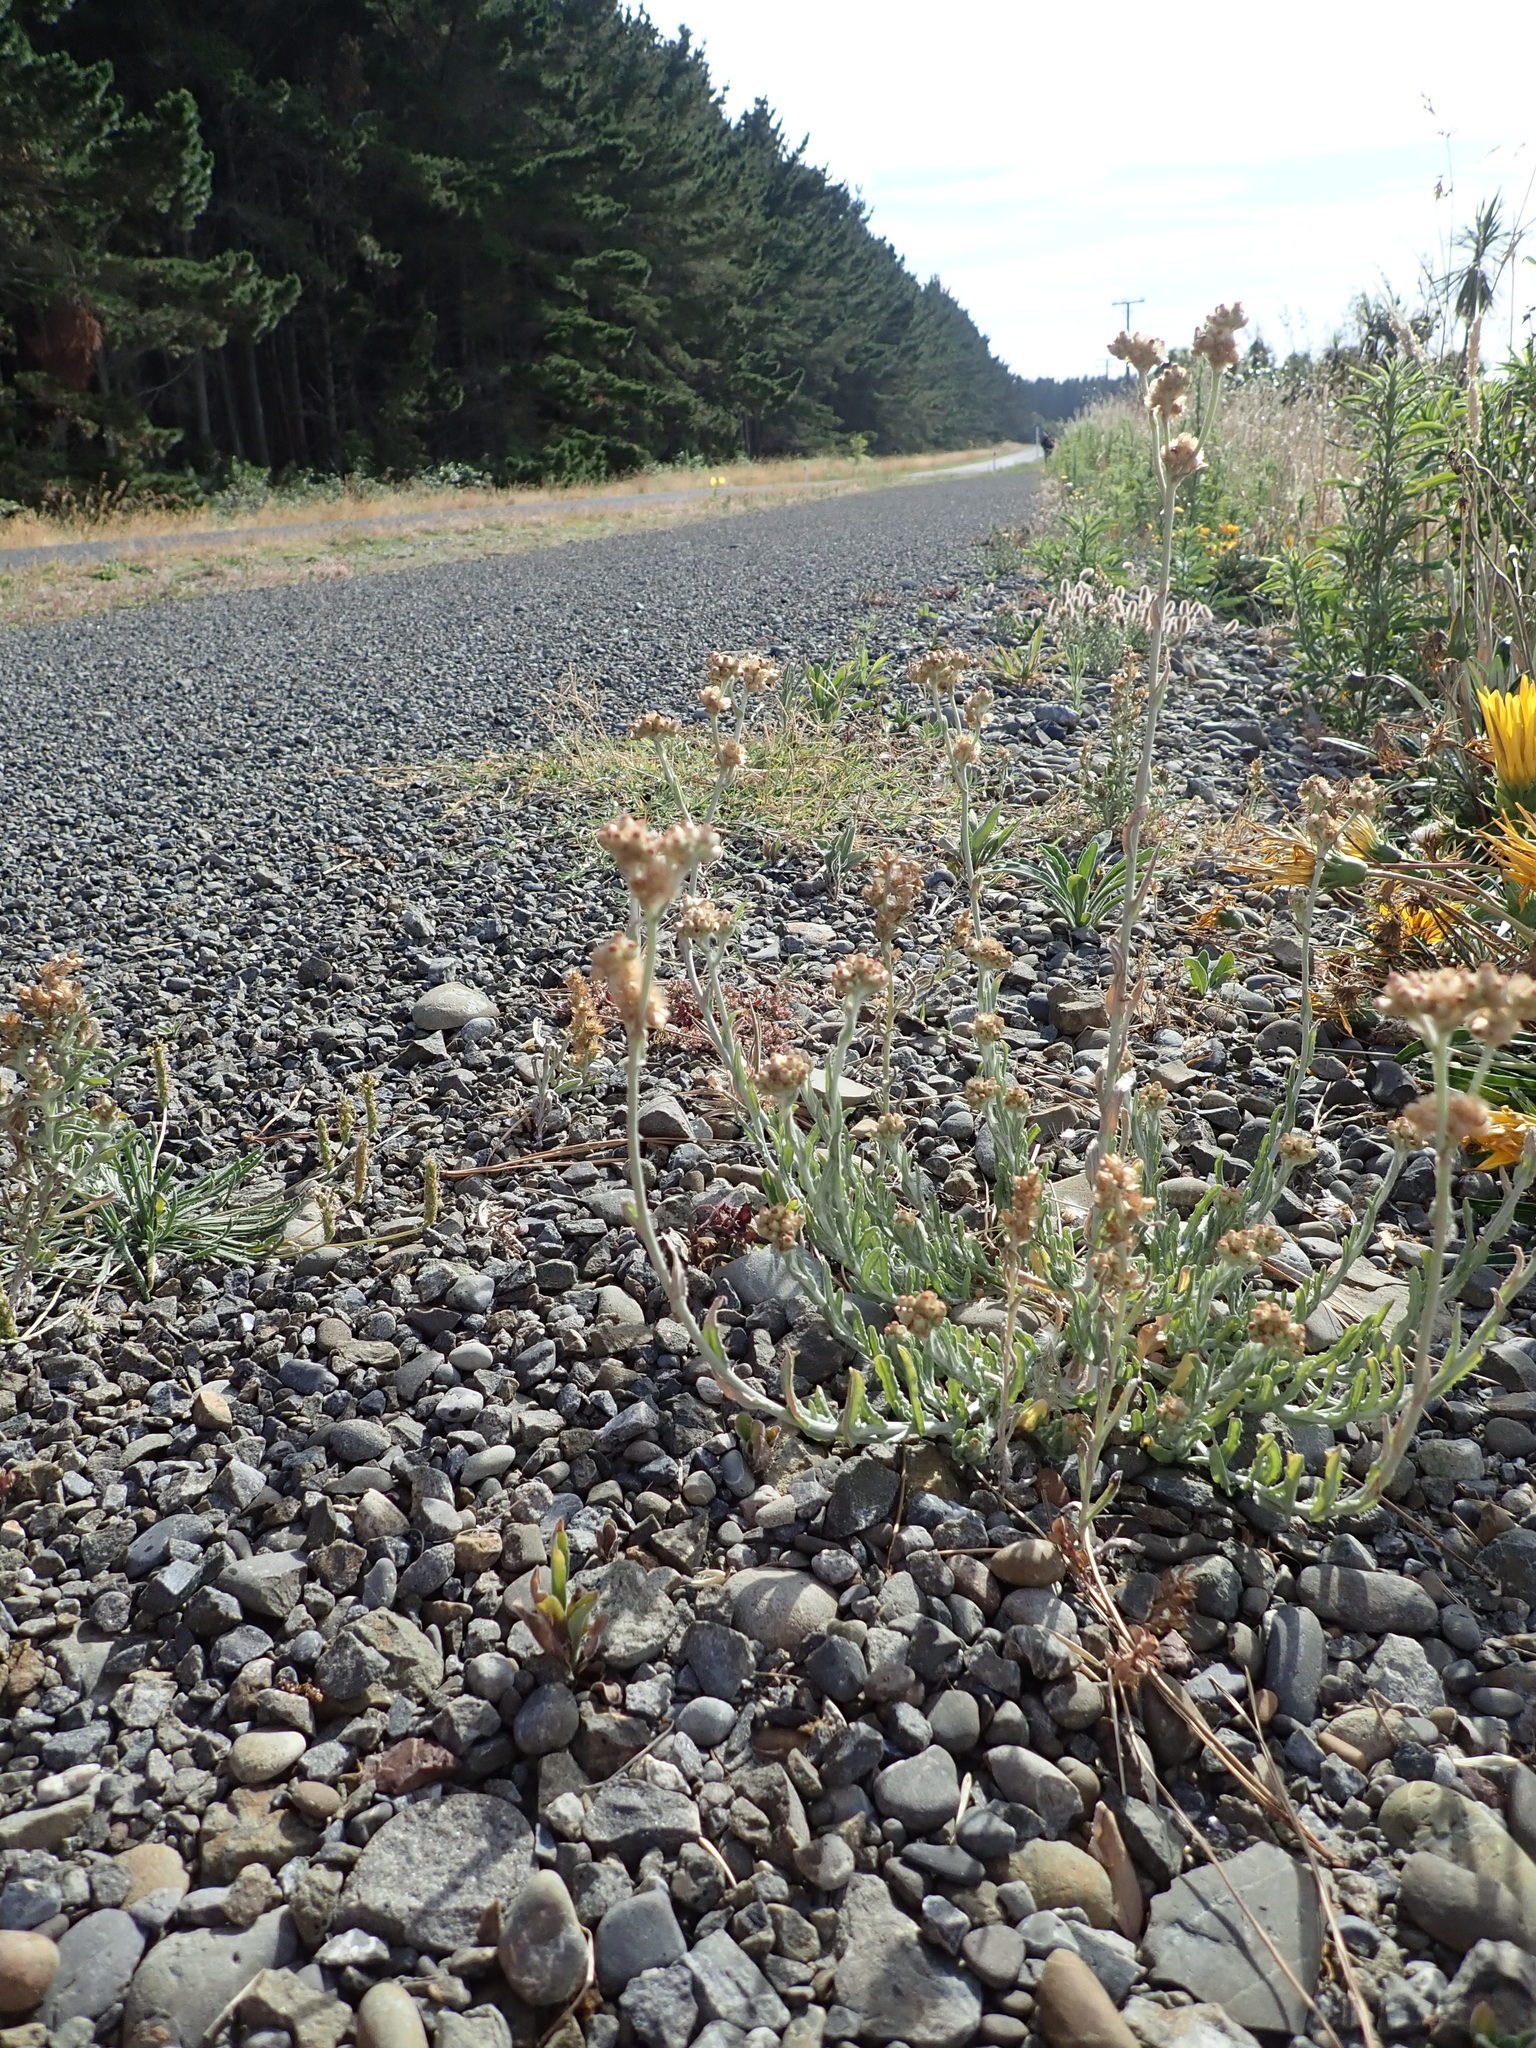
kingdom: Plantae
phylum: Tracheophyta
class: Magnoliopsida
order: Asterales
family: Asteraceae
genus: Helichrysum
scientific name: Helichrysum luteoalbum
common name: Daisy
